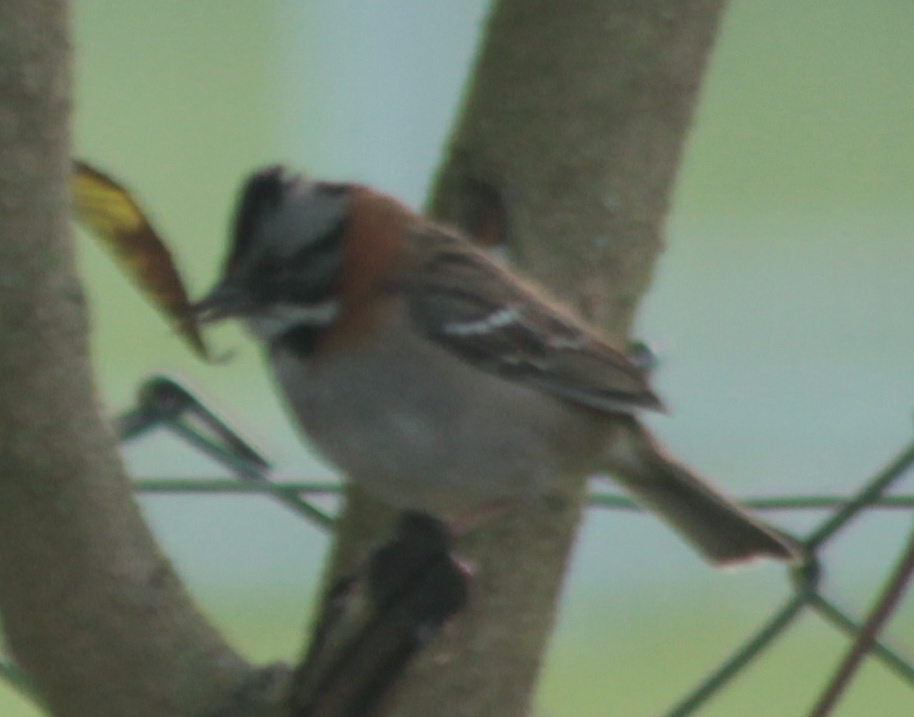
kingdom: Animalia
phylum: Chordata
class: Aves
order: Passeriformes
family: Passerellidae
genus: Zonotrichia
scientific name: Zonotrichia capensis
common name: Rufous-collared sparrow
